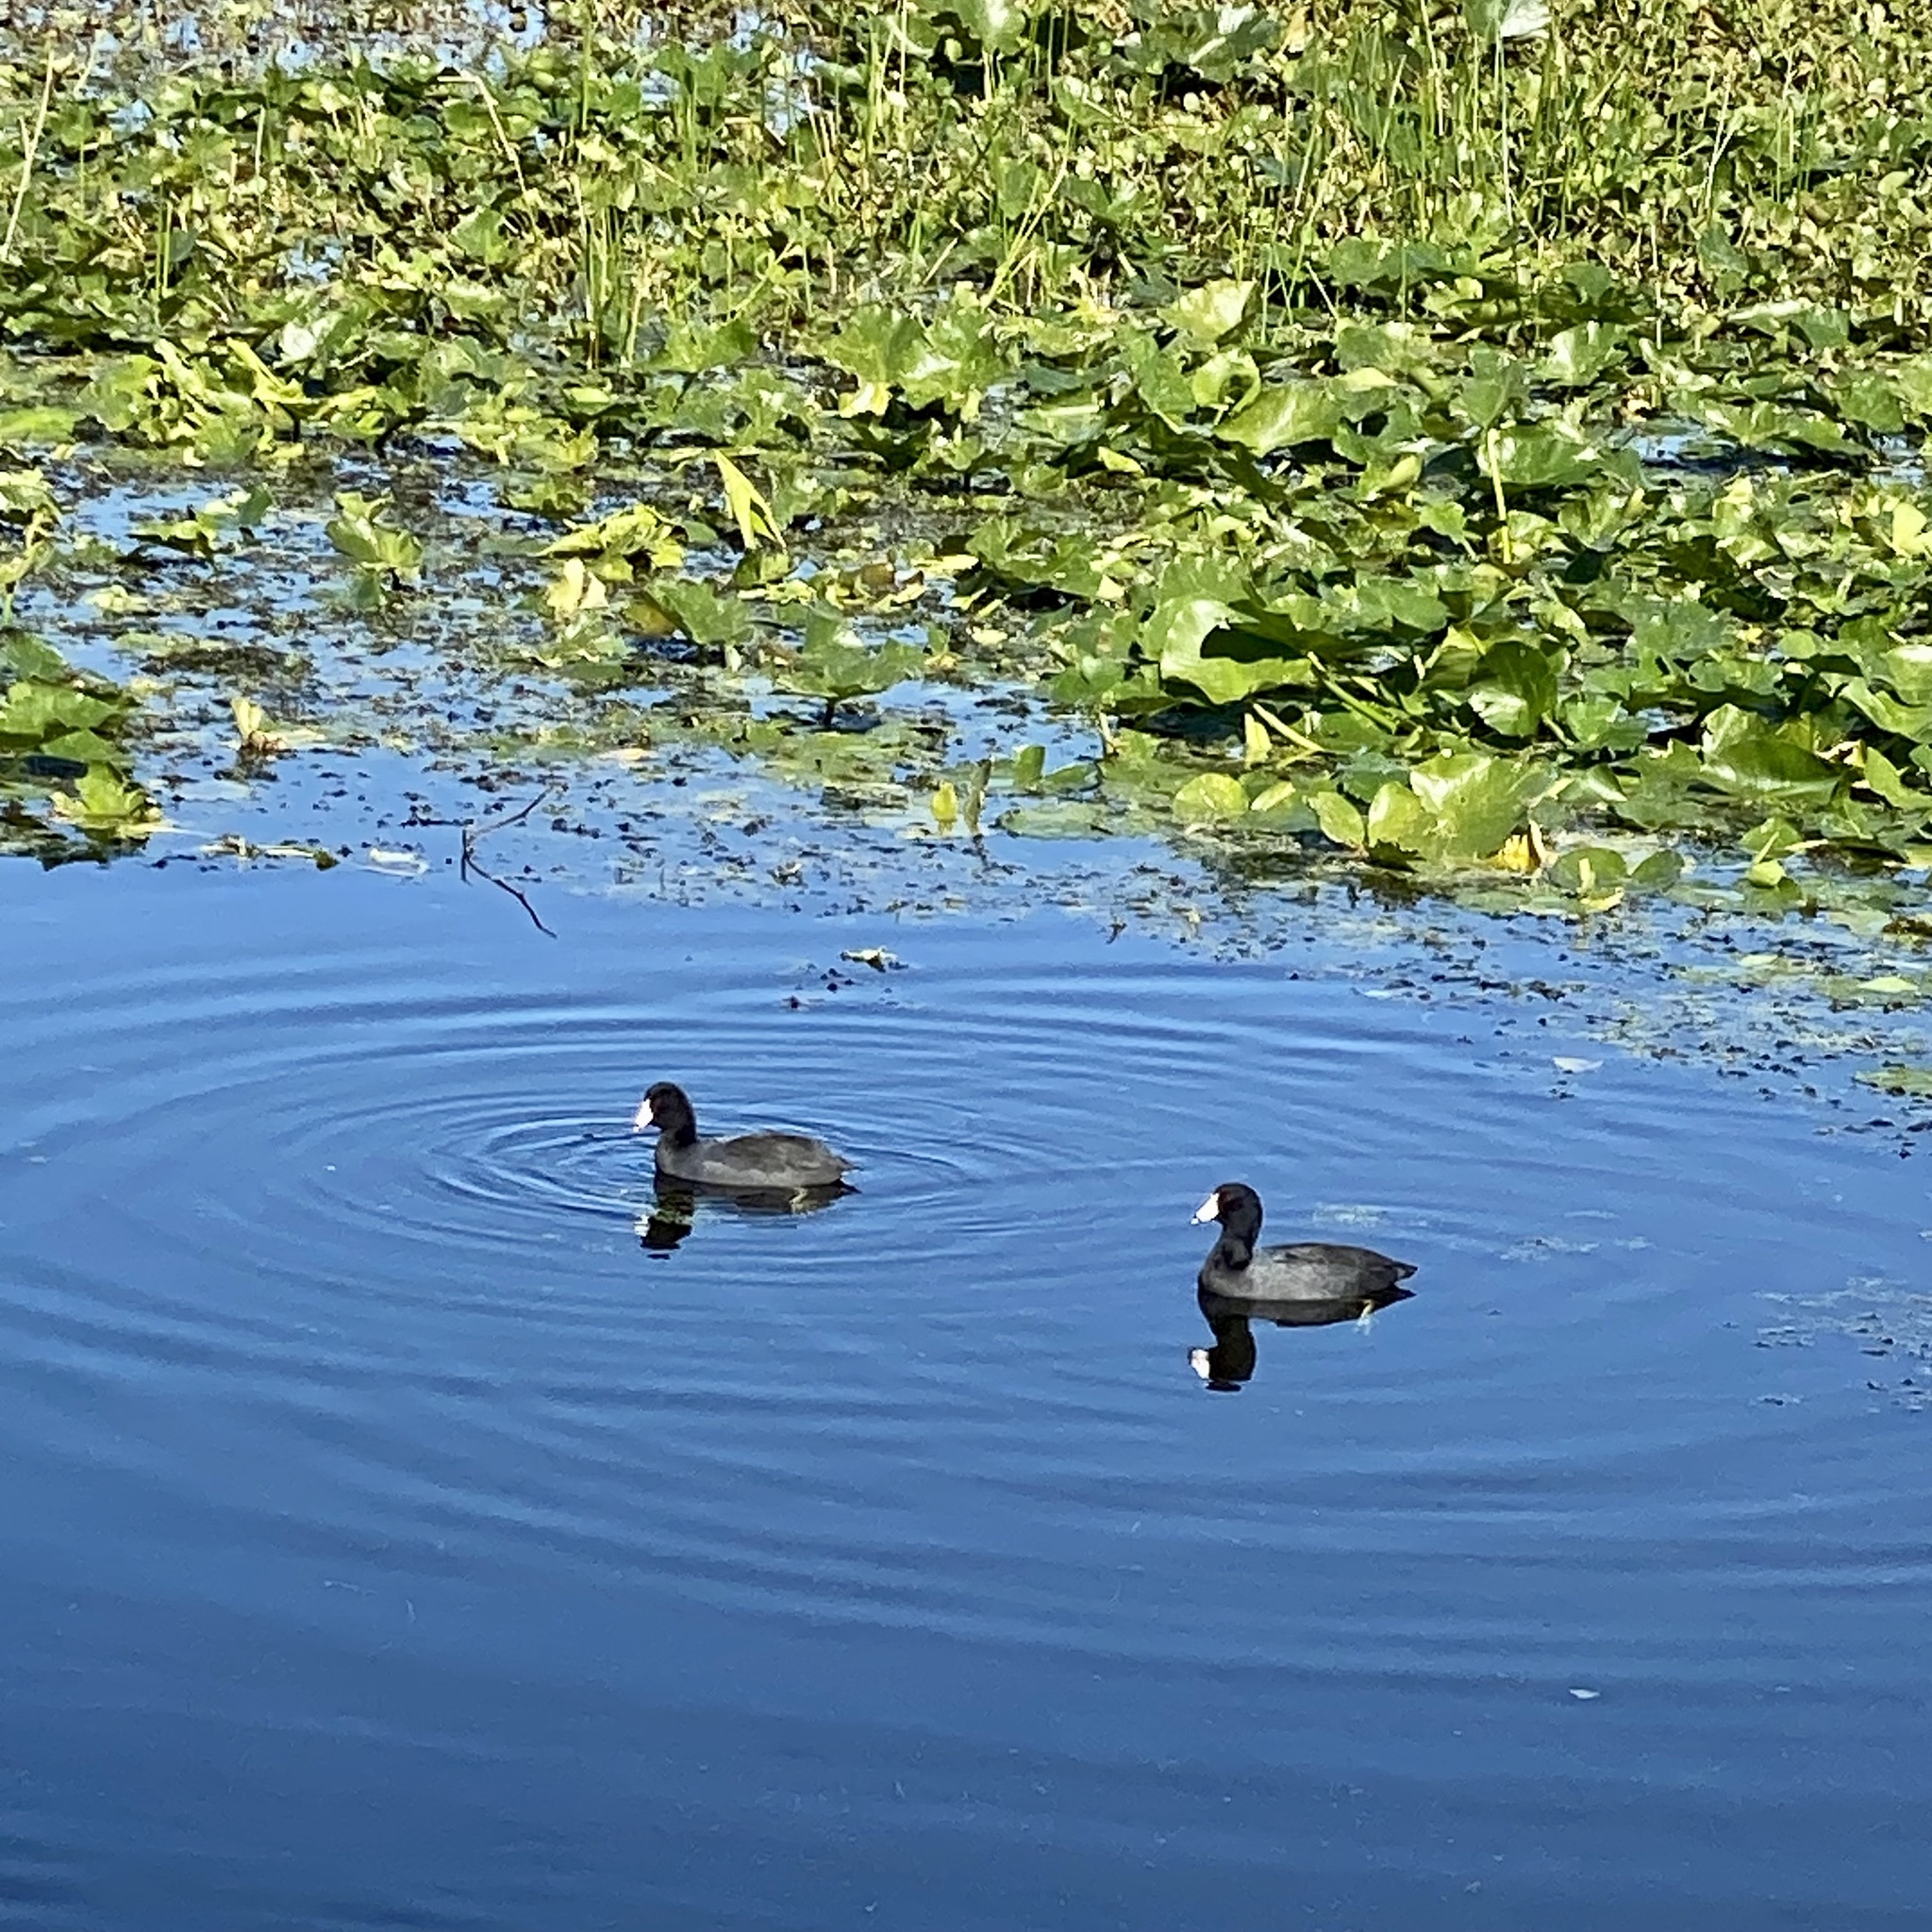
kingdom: Animalia
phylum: Chordata
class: Aves
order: Gruiformes
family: Rallidae
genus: Fulica
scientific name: Fulica americana
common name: American coot
